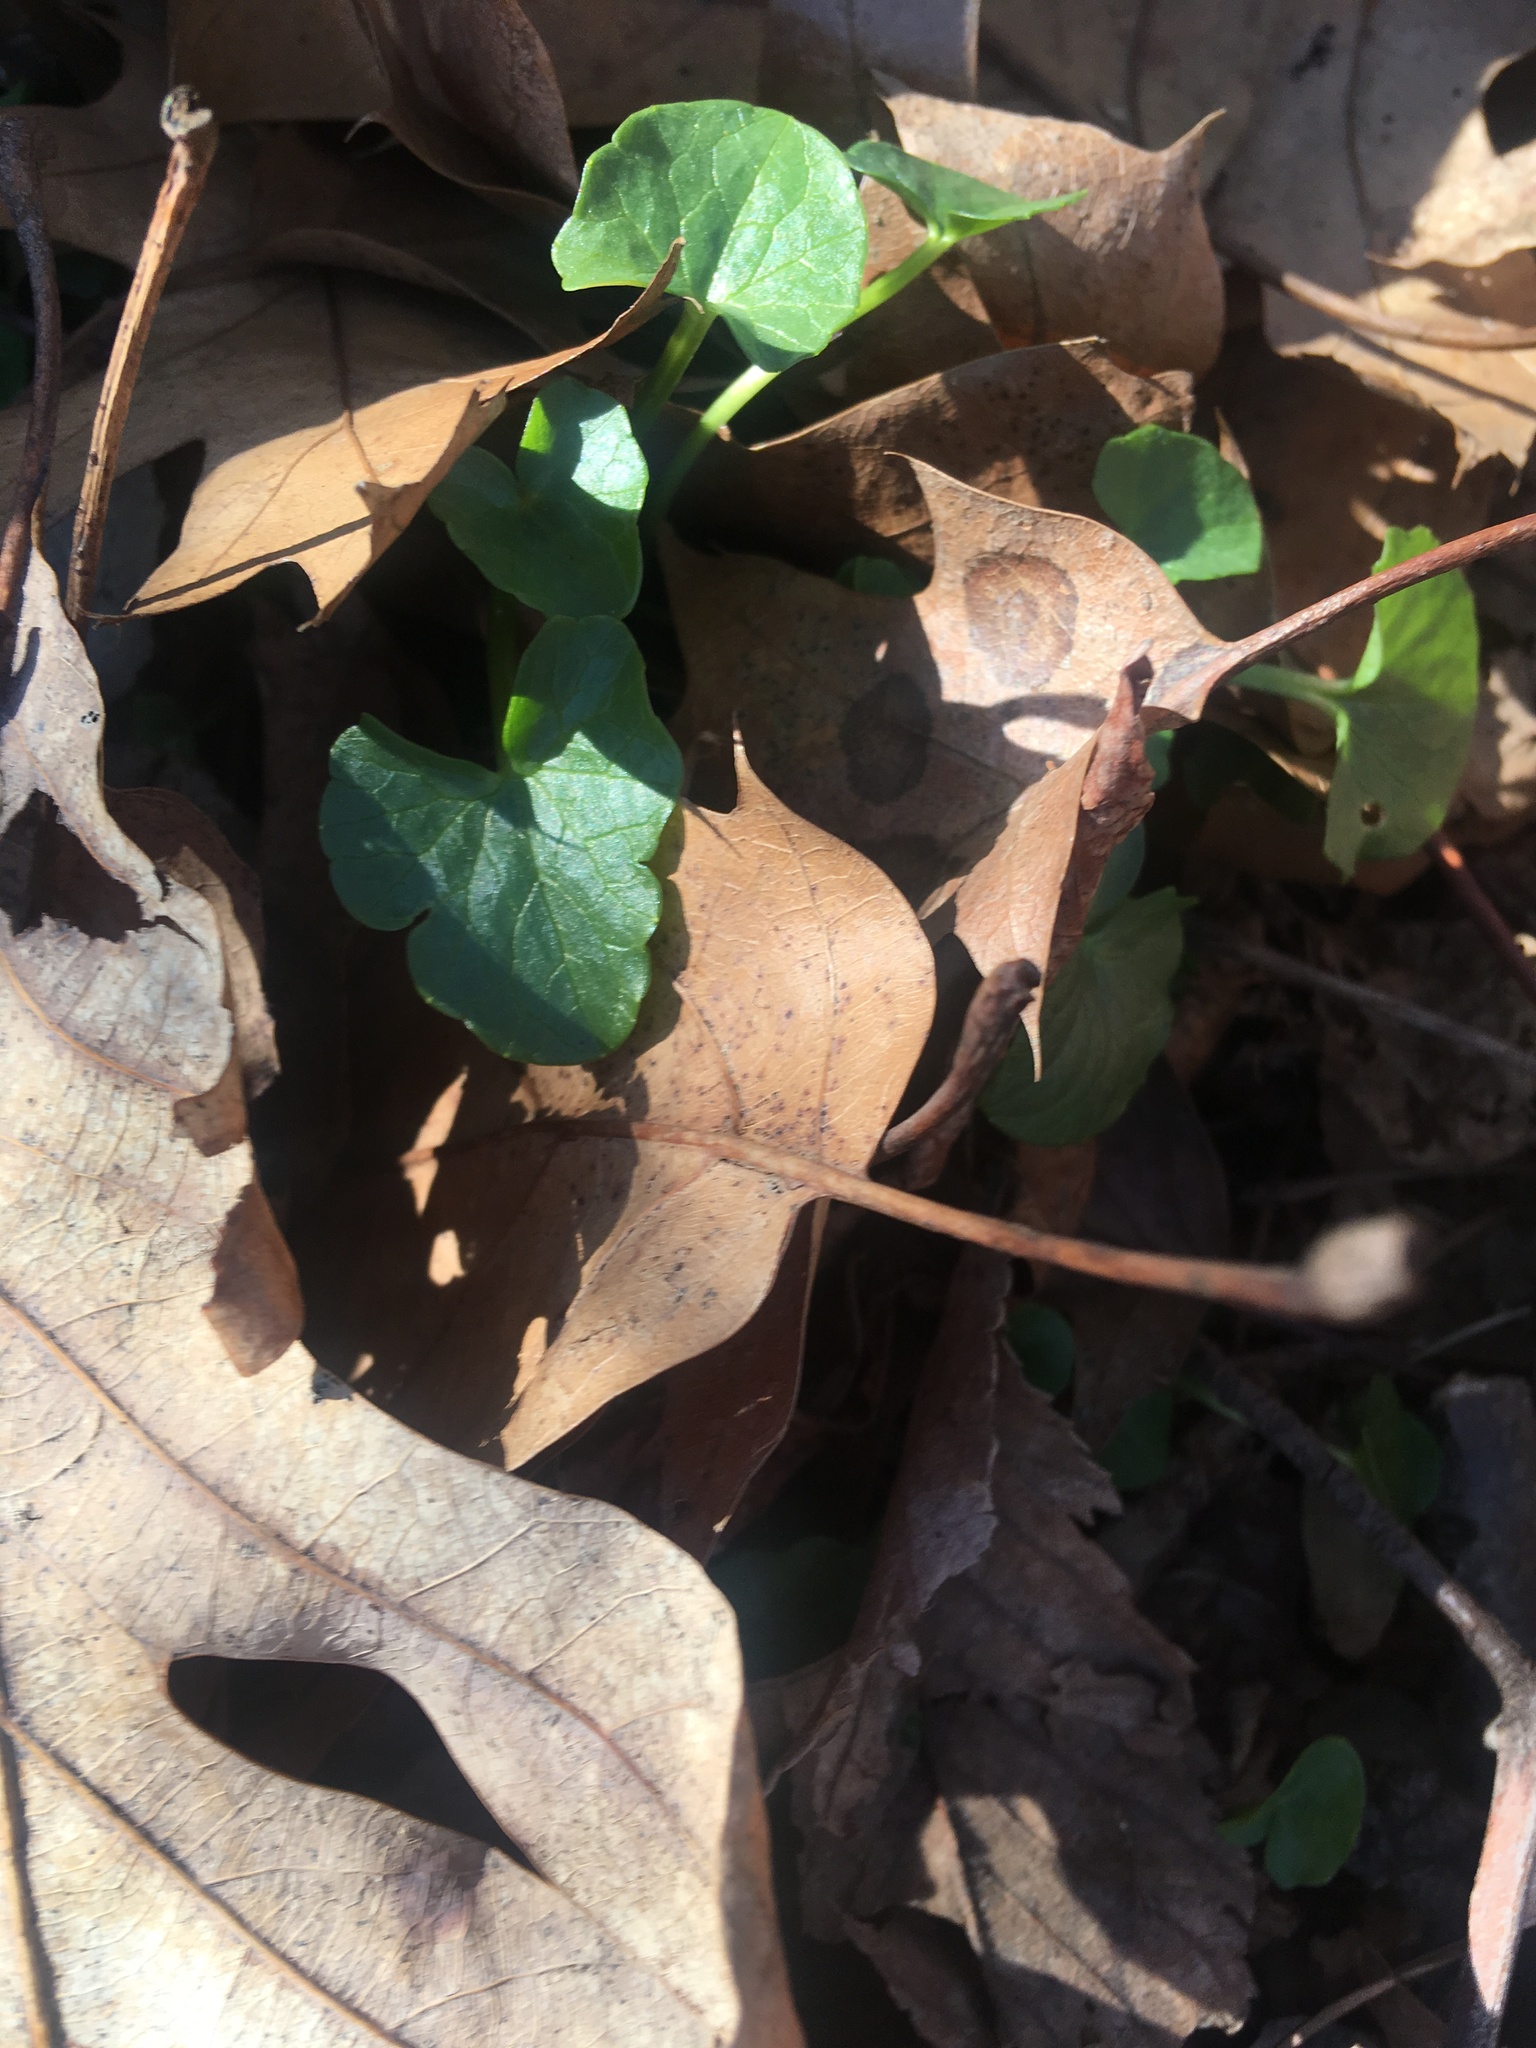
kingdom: Plantae
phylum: Tracheophyta
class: Magnoliopsida
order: Ranunculales
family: Ranunculaceae
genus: Ficaria
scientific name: Ficaria verna
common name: Lesser celandine
